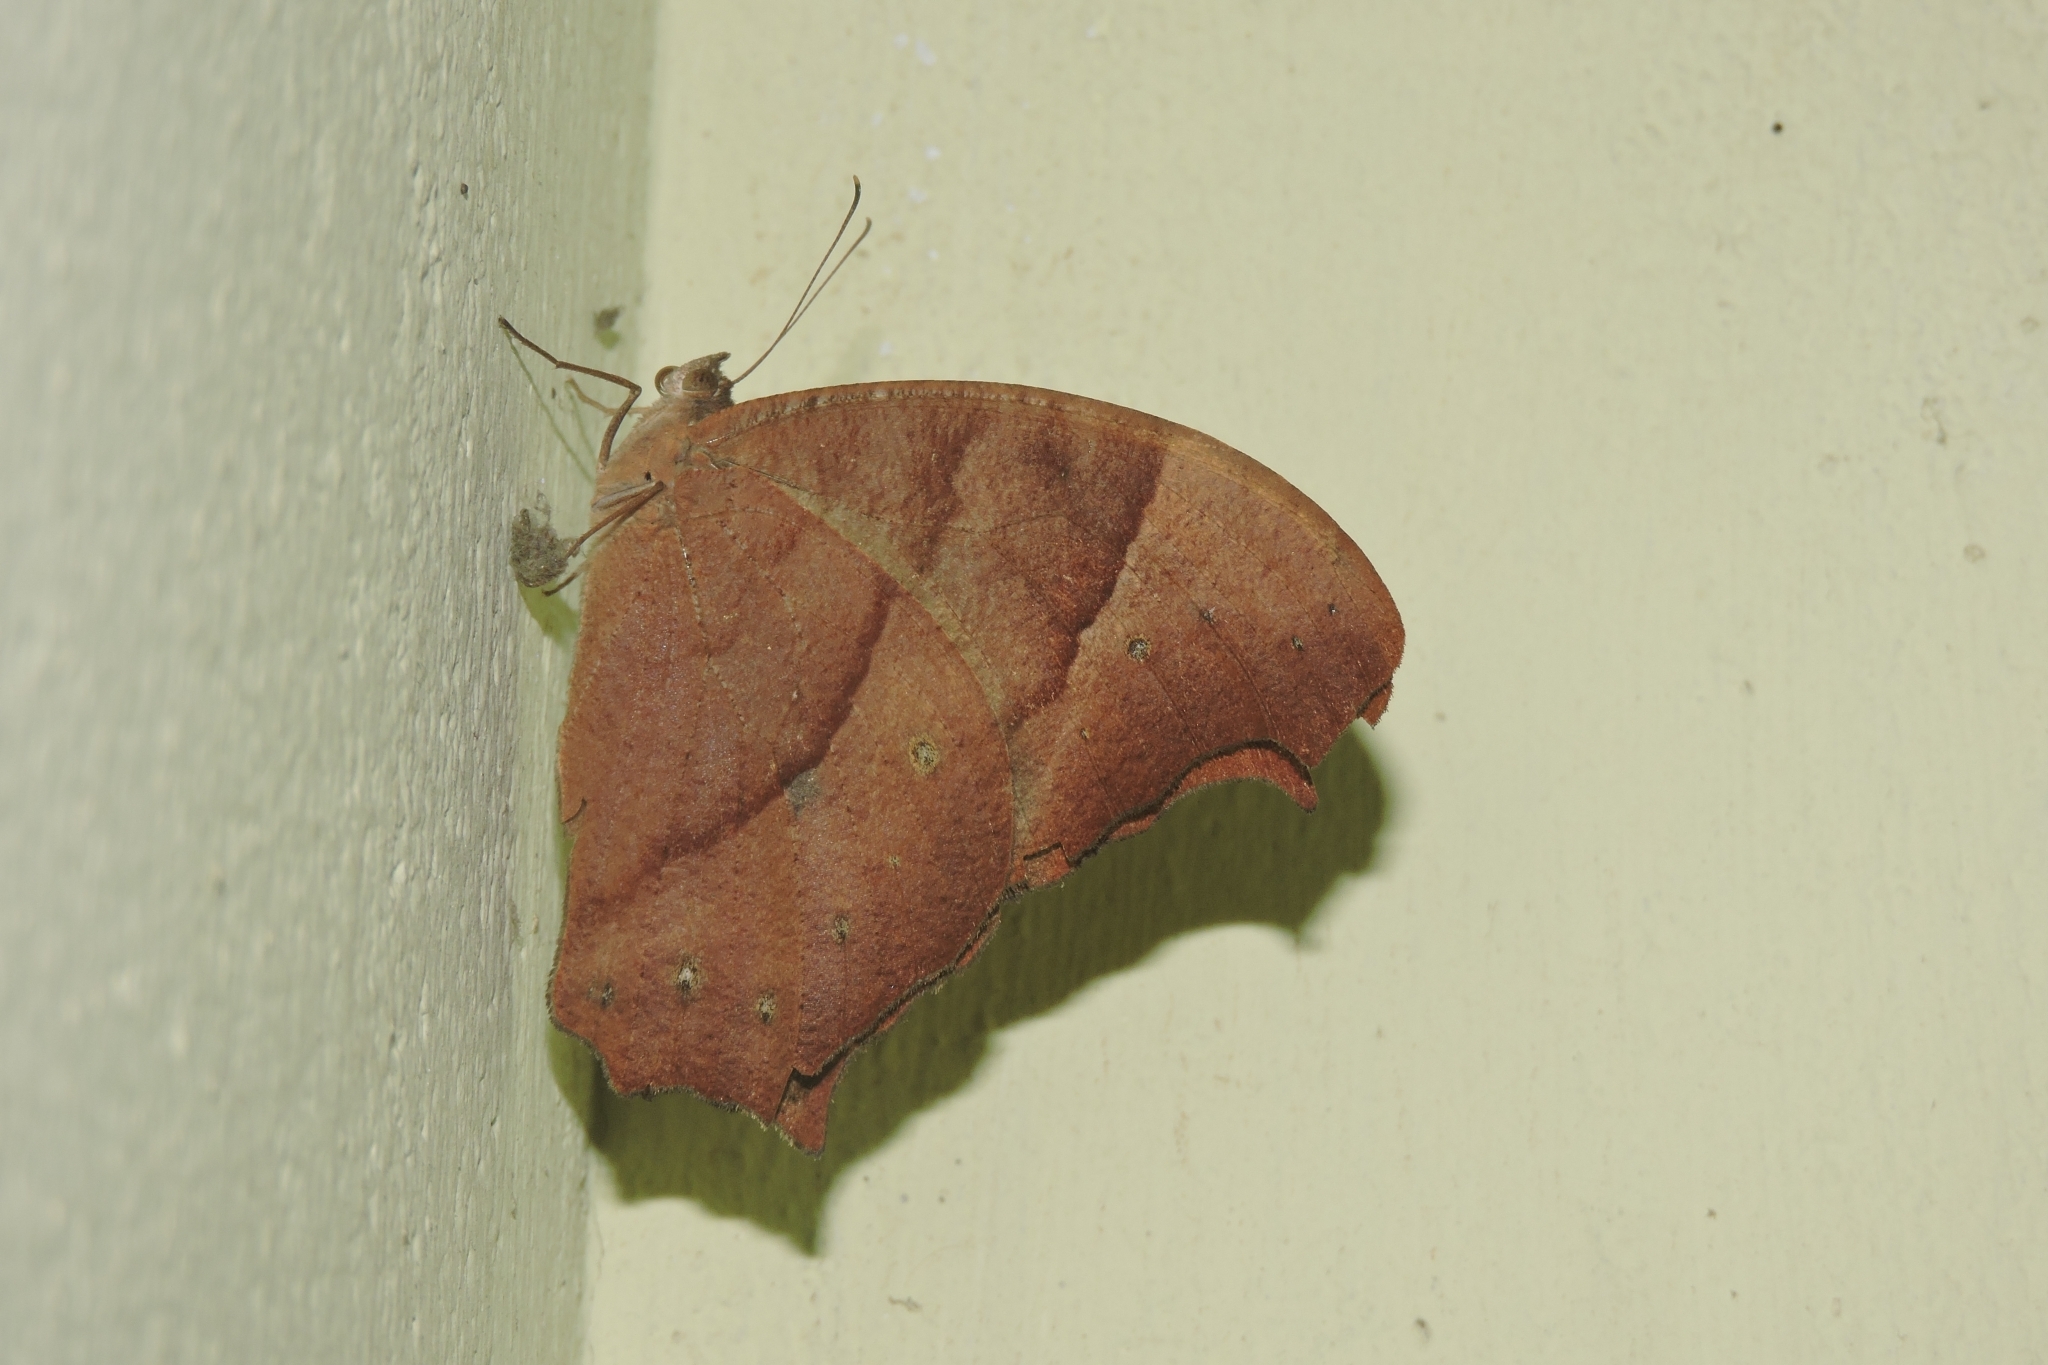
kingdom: Animalia
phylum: Arthropoda
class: Insecta
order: Lepidoptera
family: Nymphalidae
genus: Melanitis
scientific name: Melanitis leda
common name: Twilight brown
